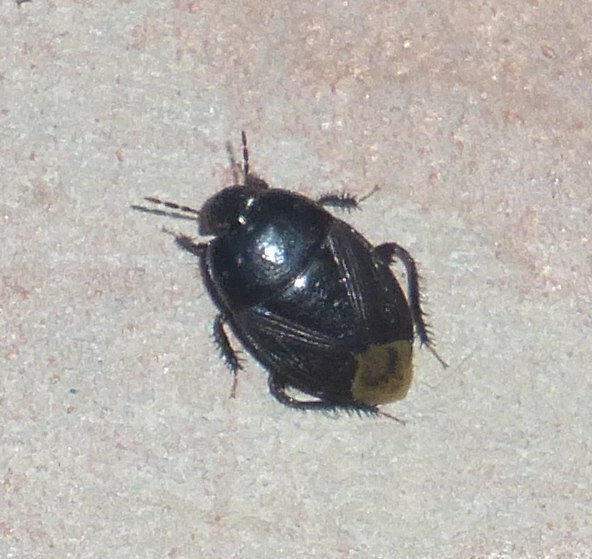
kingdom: Animalia
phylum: Arthropoda
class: Insecta
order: Hemiptera
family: Cydnidae
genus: Macroscytus
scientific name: Macroscytus brunneus
